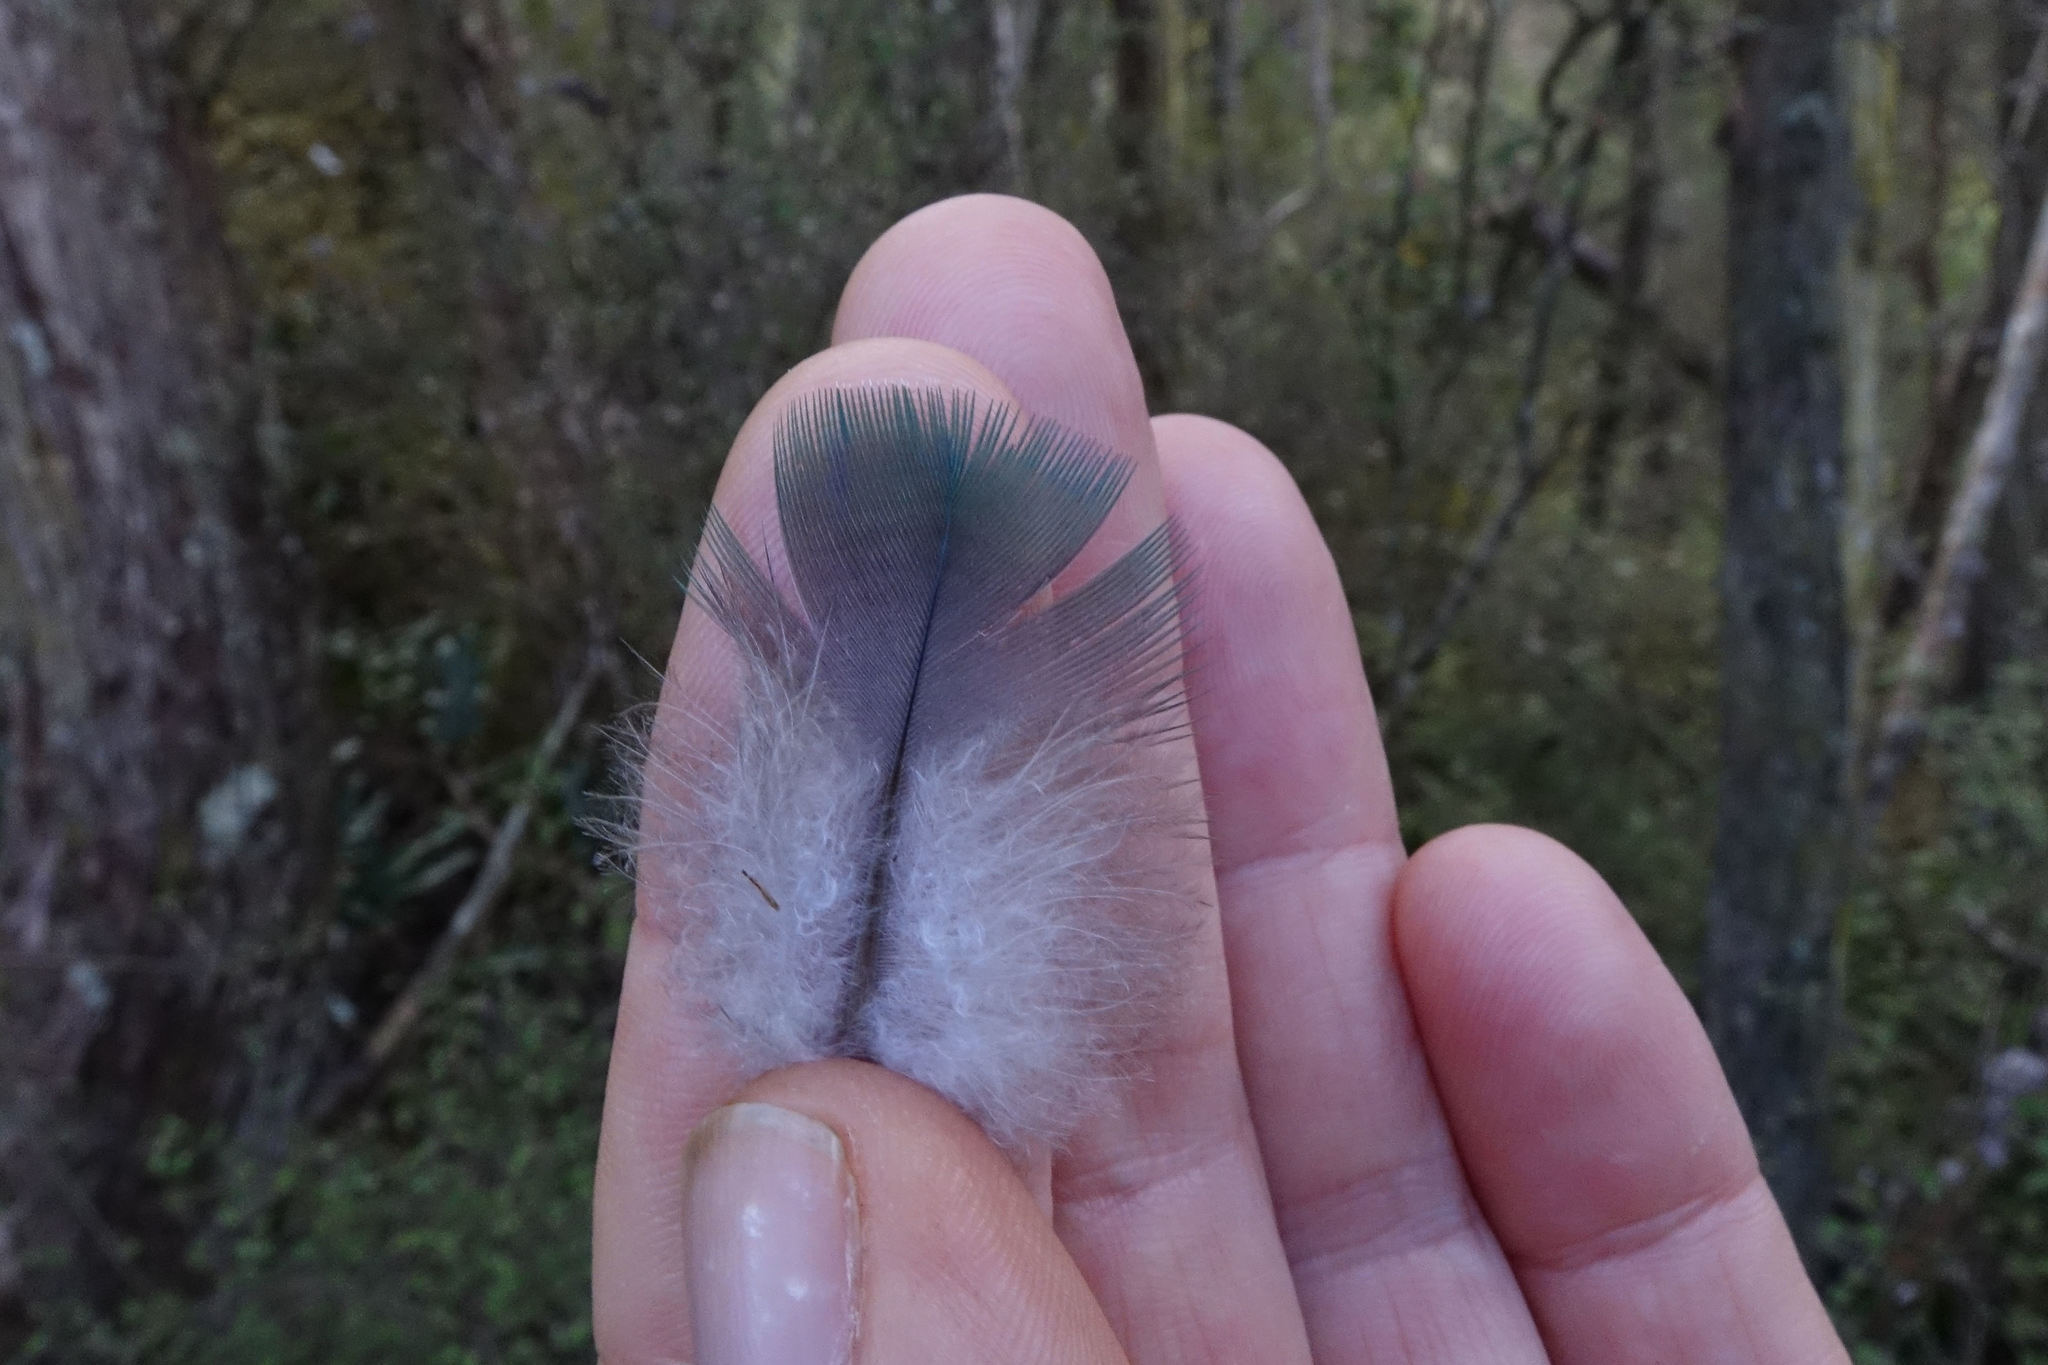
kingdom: Animalia
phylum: Chordata
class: Aves
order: Columbiformes
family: Columbidae
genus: Hemiphaga
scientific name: Hemiphaga novaeseelandiae
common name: New zealand pigeon
